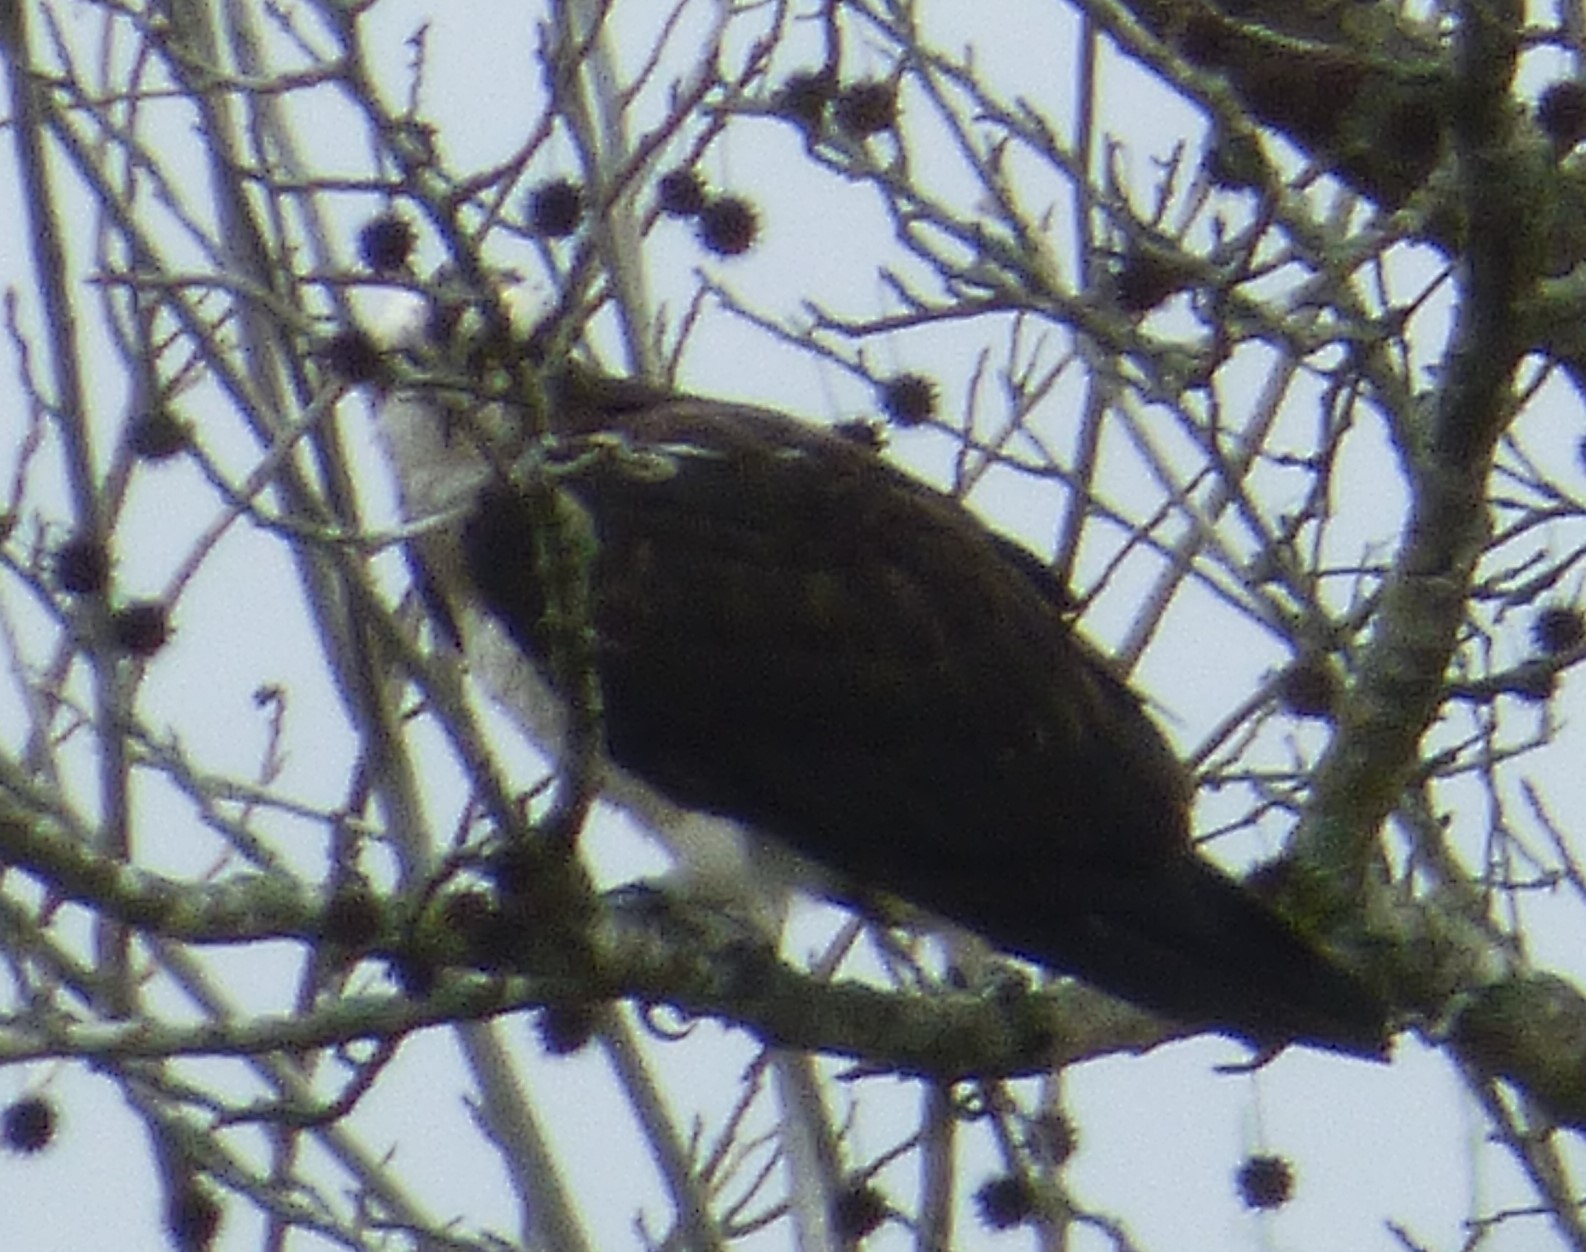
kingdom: Animalia
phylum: Chordata
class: Aves
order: Accipitriformes
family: Pandionidae
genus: Pandion
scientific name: Pandion haliaetus
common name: Osprey
